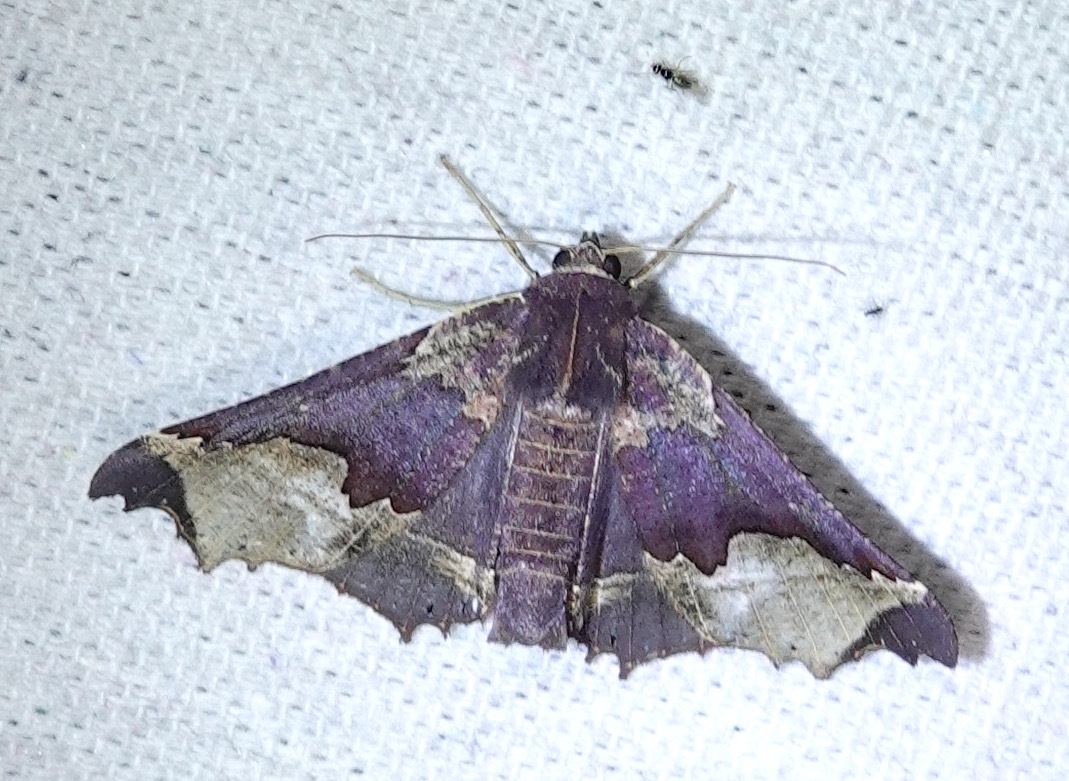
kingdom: Animalia
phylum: Arthropoda
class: Insecta
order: Lepidoptera
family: Geometridae
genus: Pero
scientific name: Pero chapela
